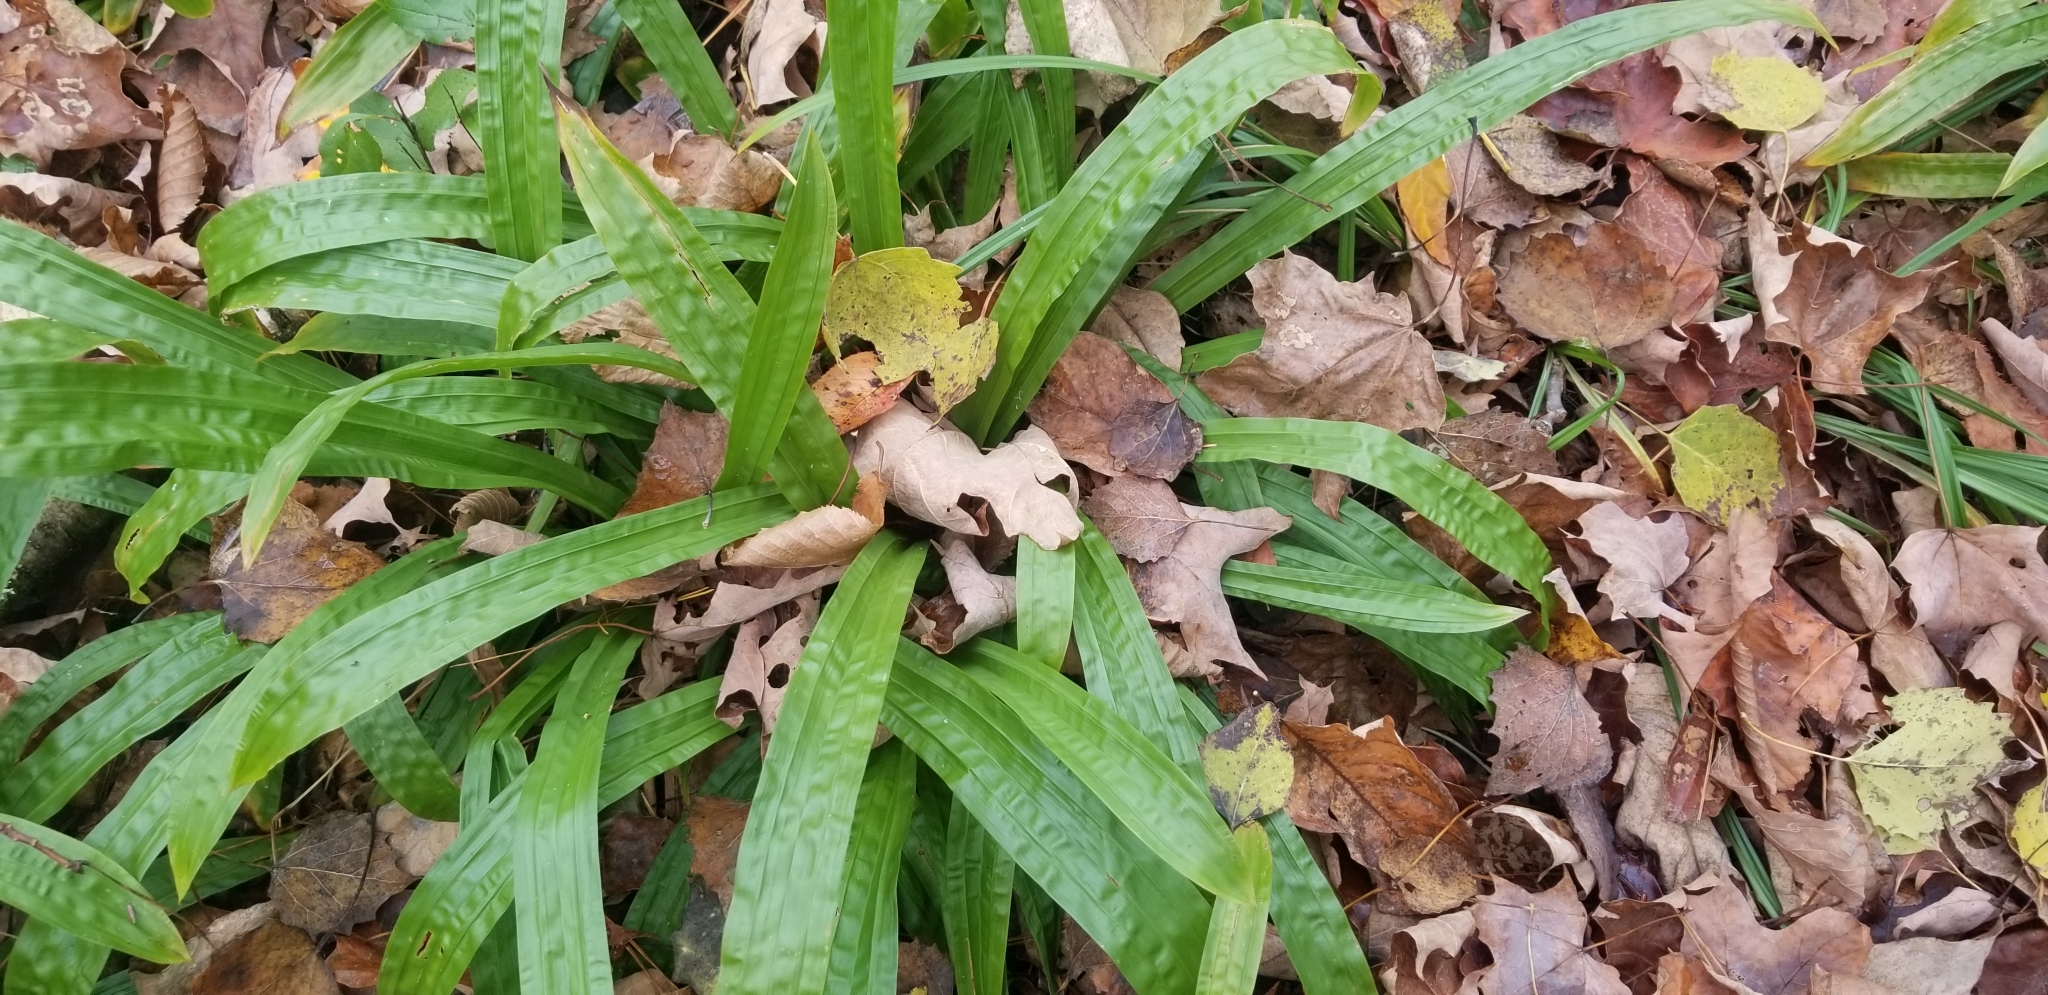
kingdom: Plantae
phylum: Tracheophyta
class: Liliopsida
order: Poales
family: Cyperaceae
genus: Carex
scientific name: Carex plantaginea
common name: Plantain-leaved sedge
